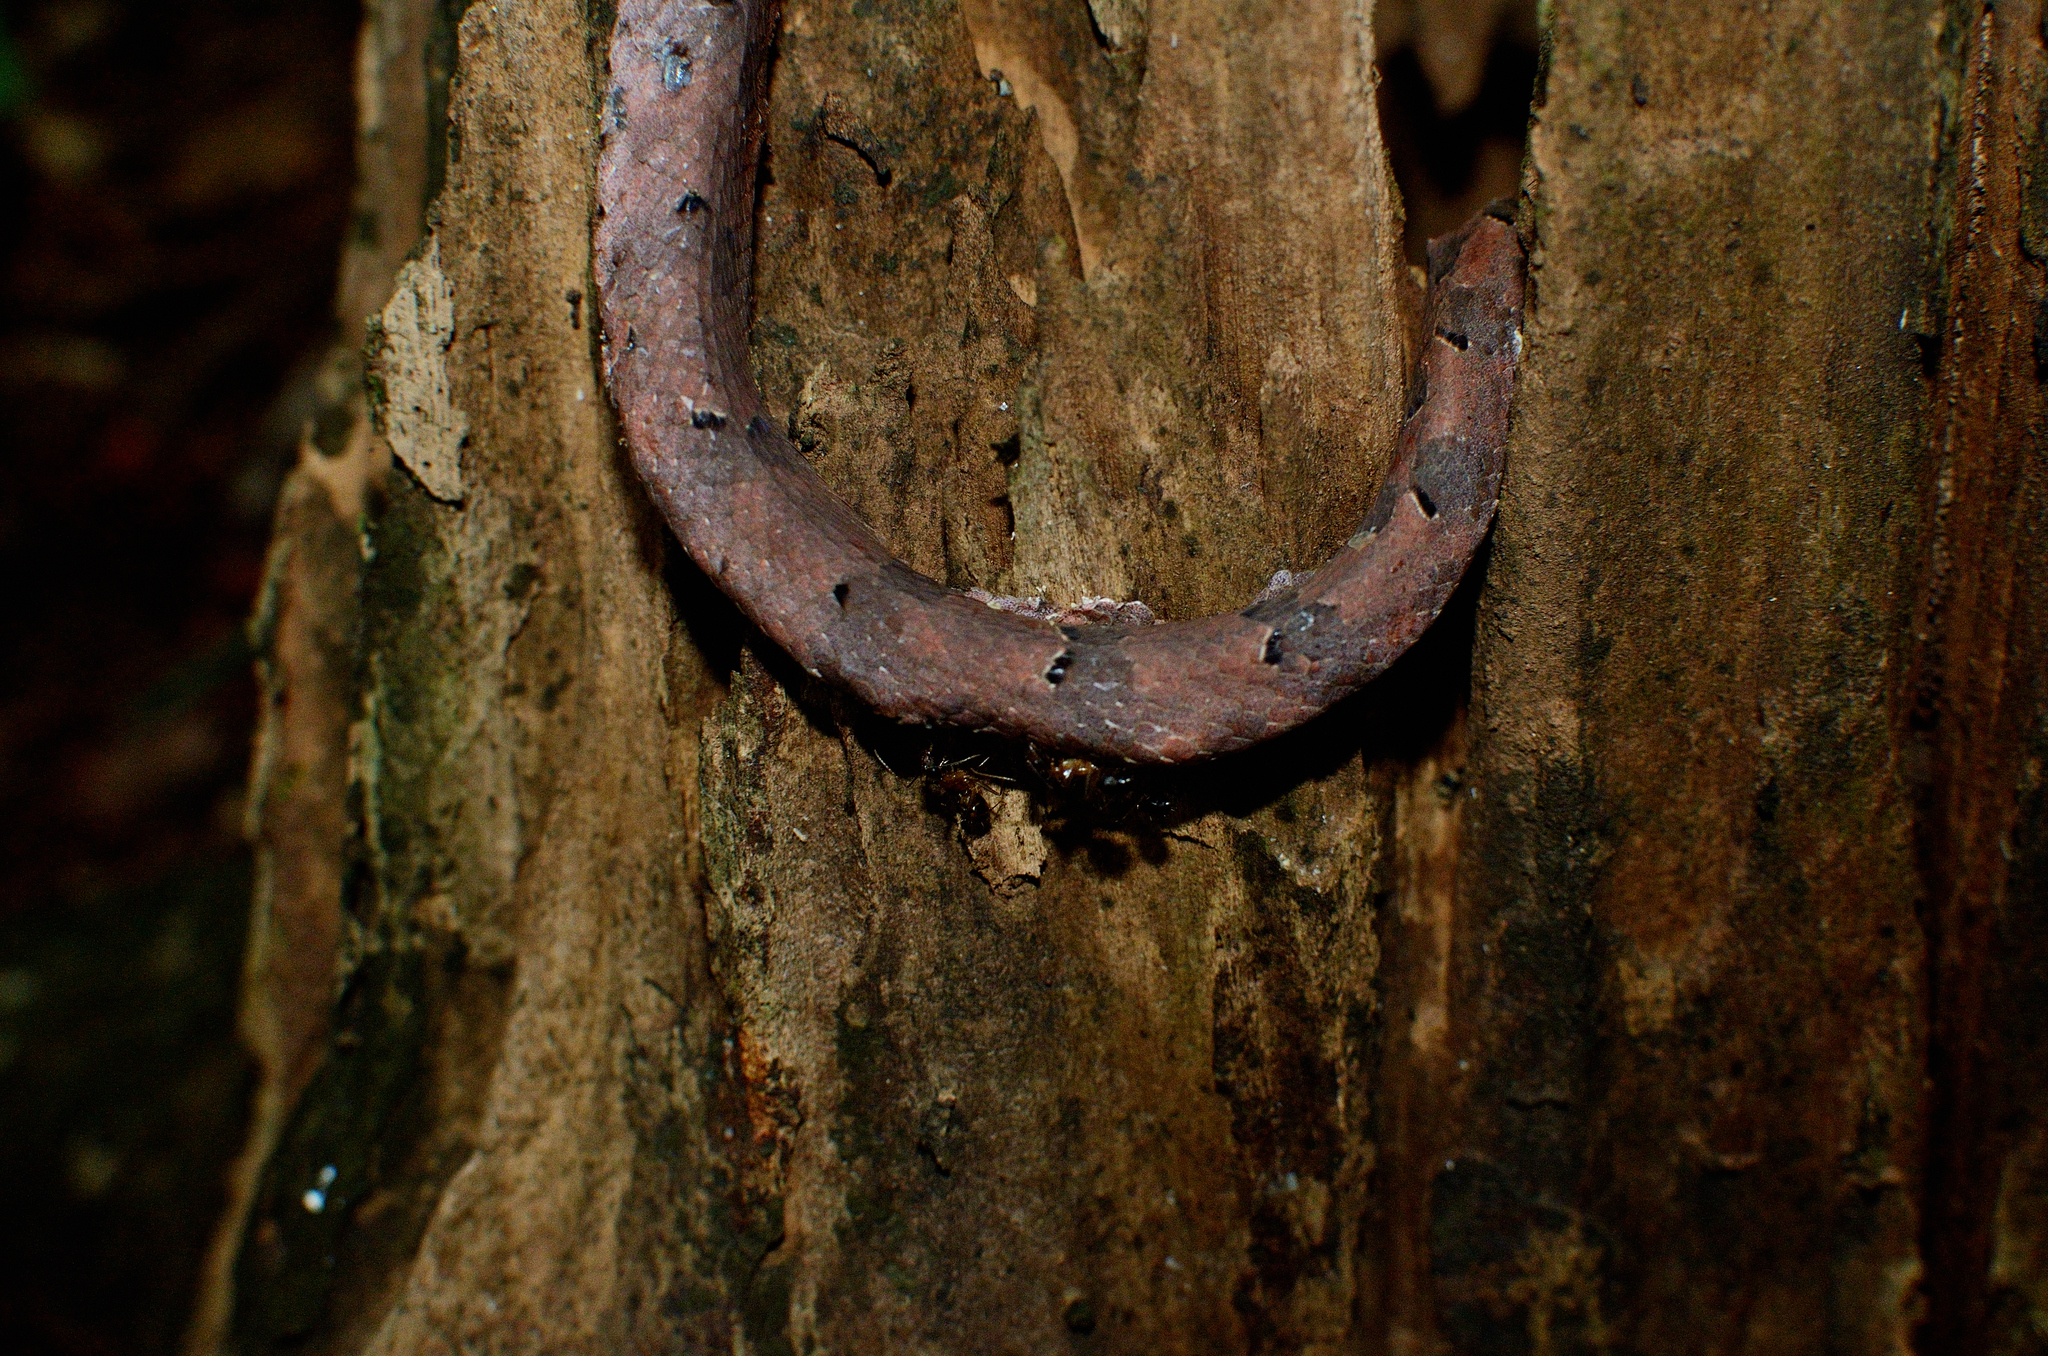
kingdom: Animalia
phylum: Chordata
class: Squamata
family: Viperidae
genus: Hypnale
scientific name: Hypnale hypnale
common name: Hump-nosed moccasin
